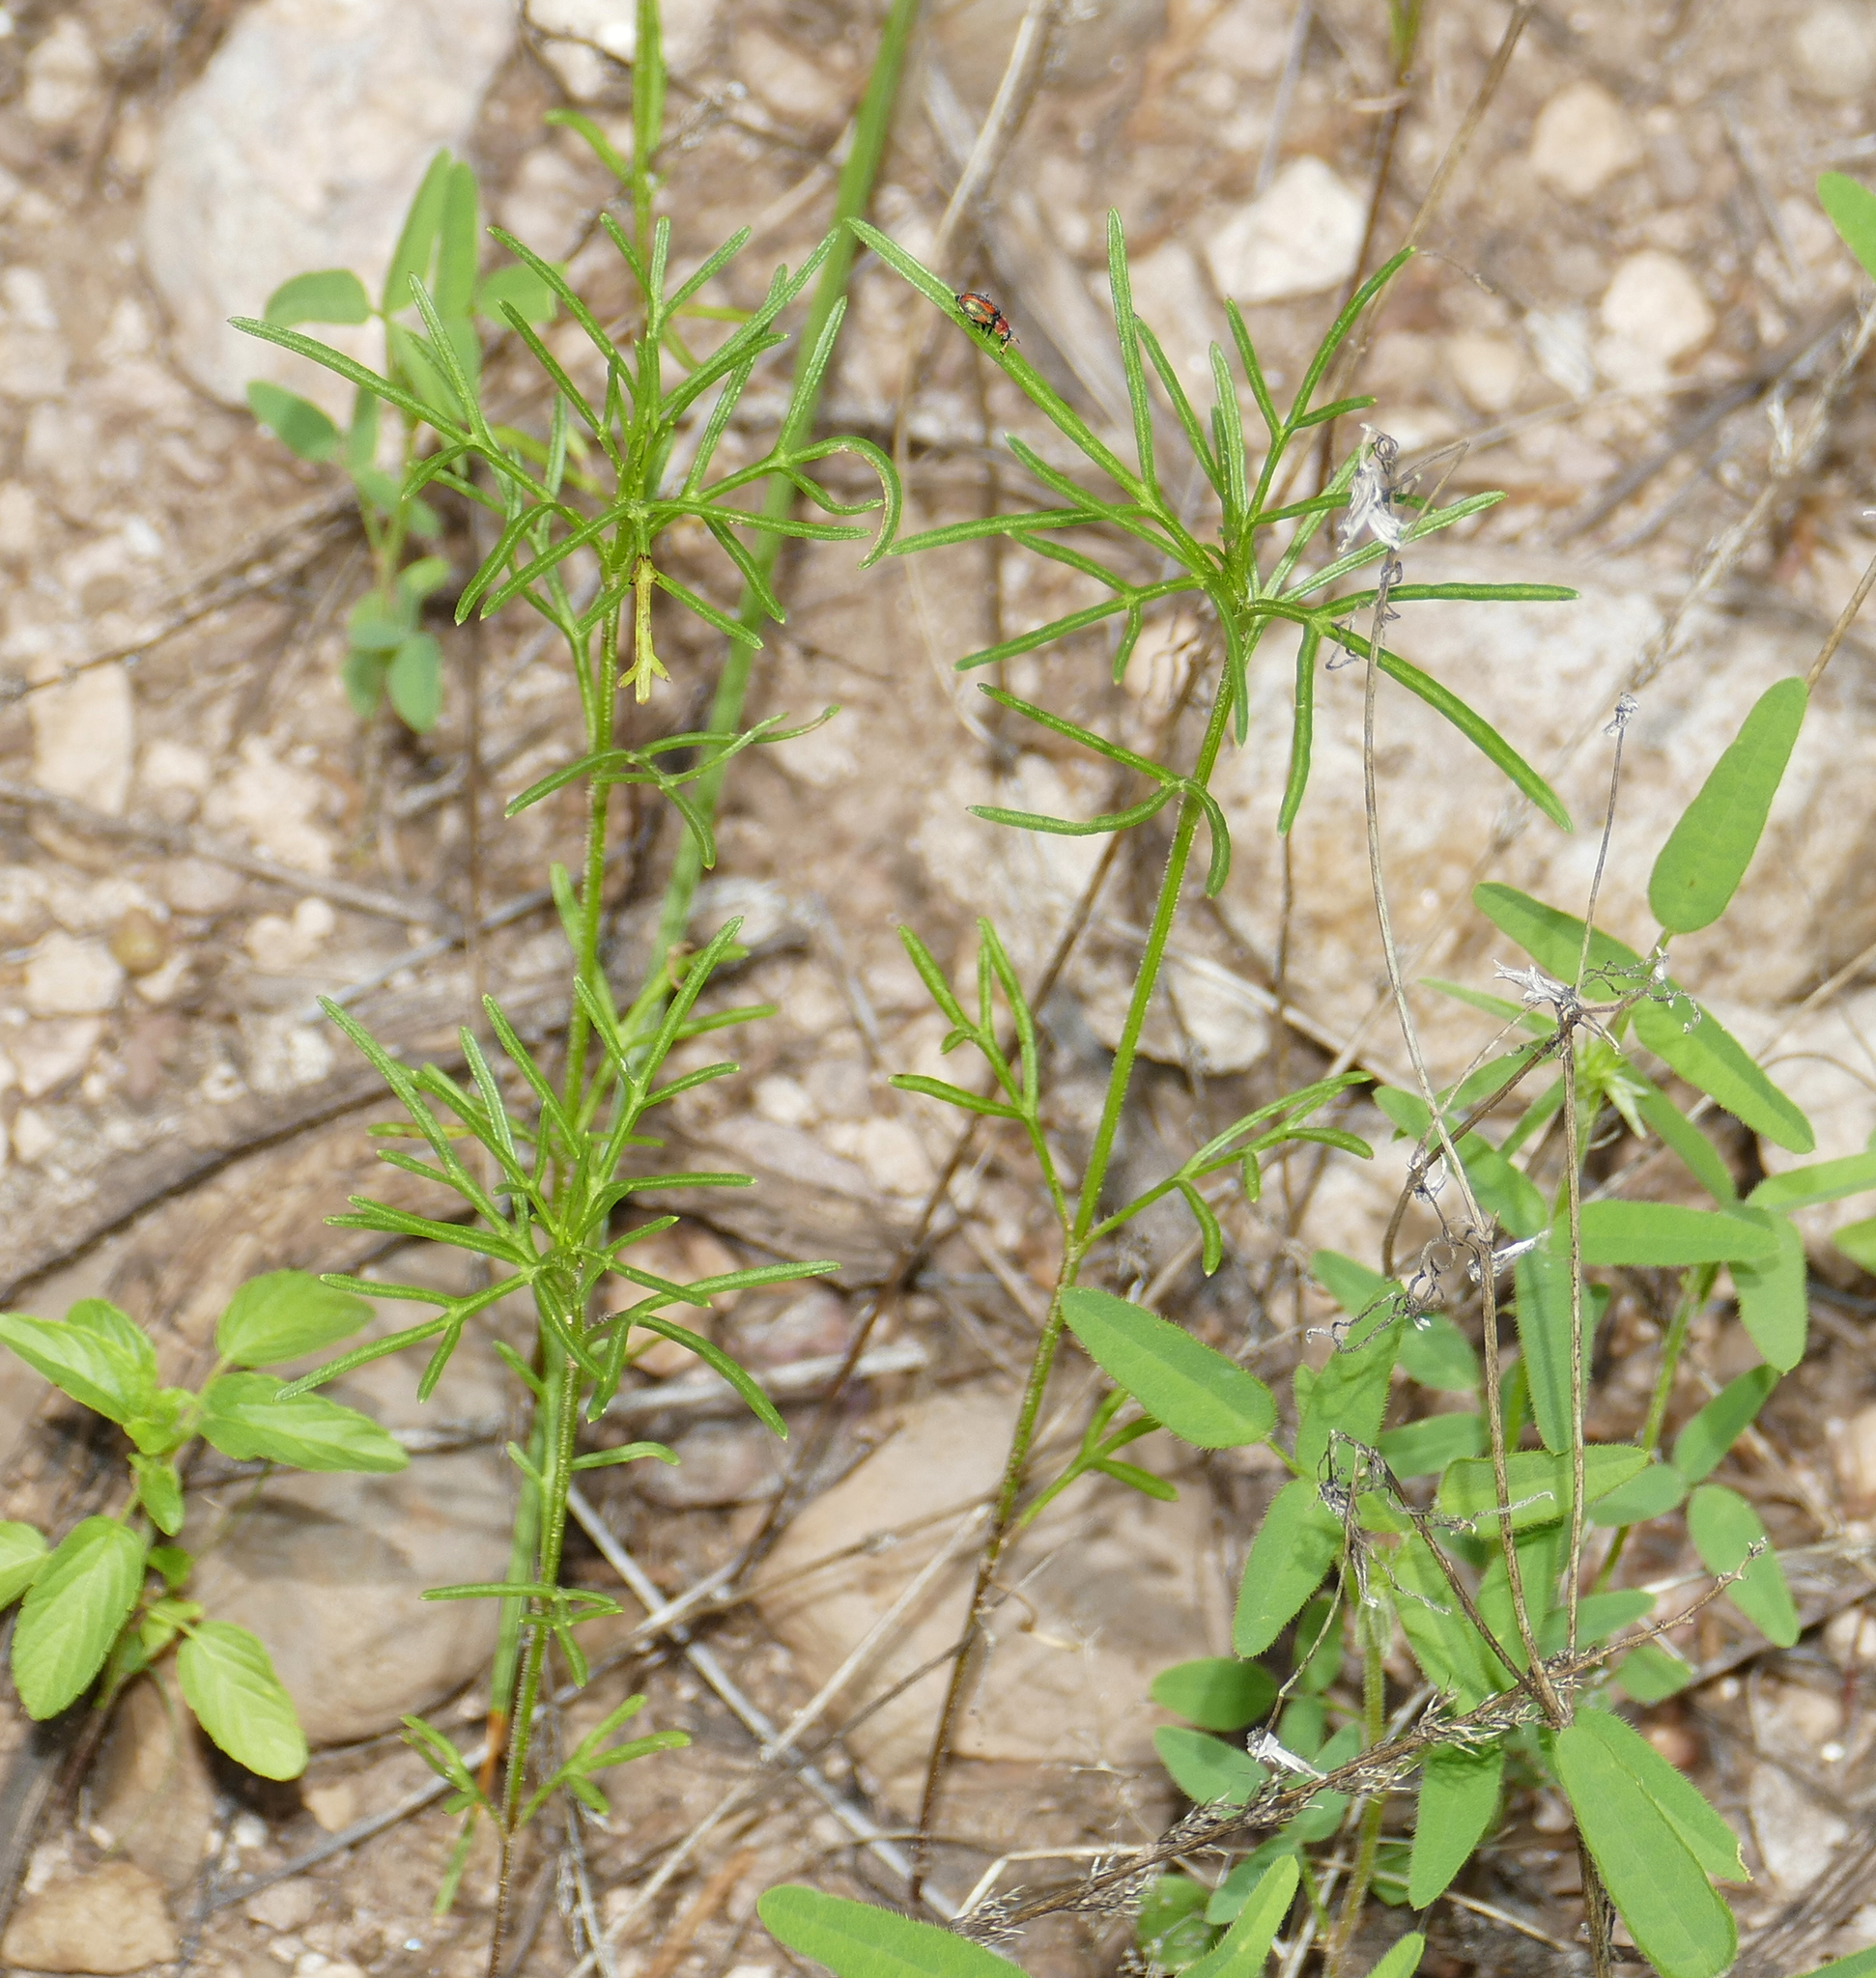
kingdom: Plantae
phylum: Tracheophyta
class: Magnoliopsida
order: Asterales
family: Asteraceae
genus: Heterosperma
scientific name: Heterosperma pinnatum
